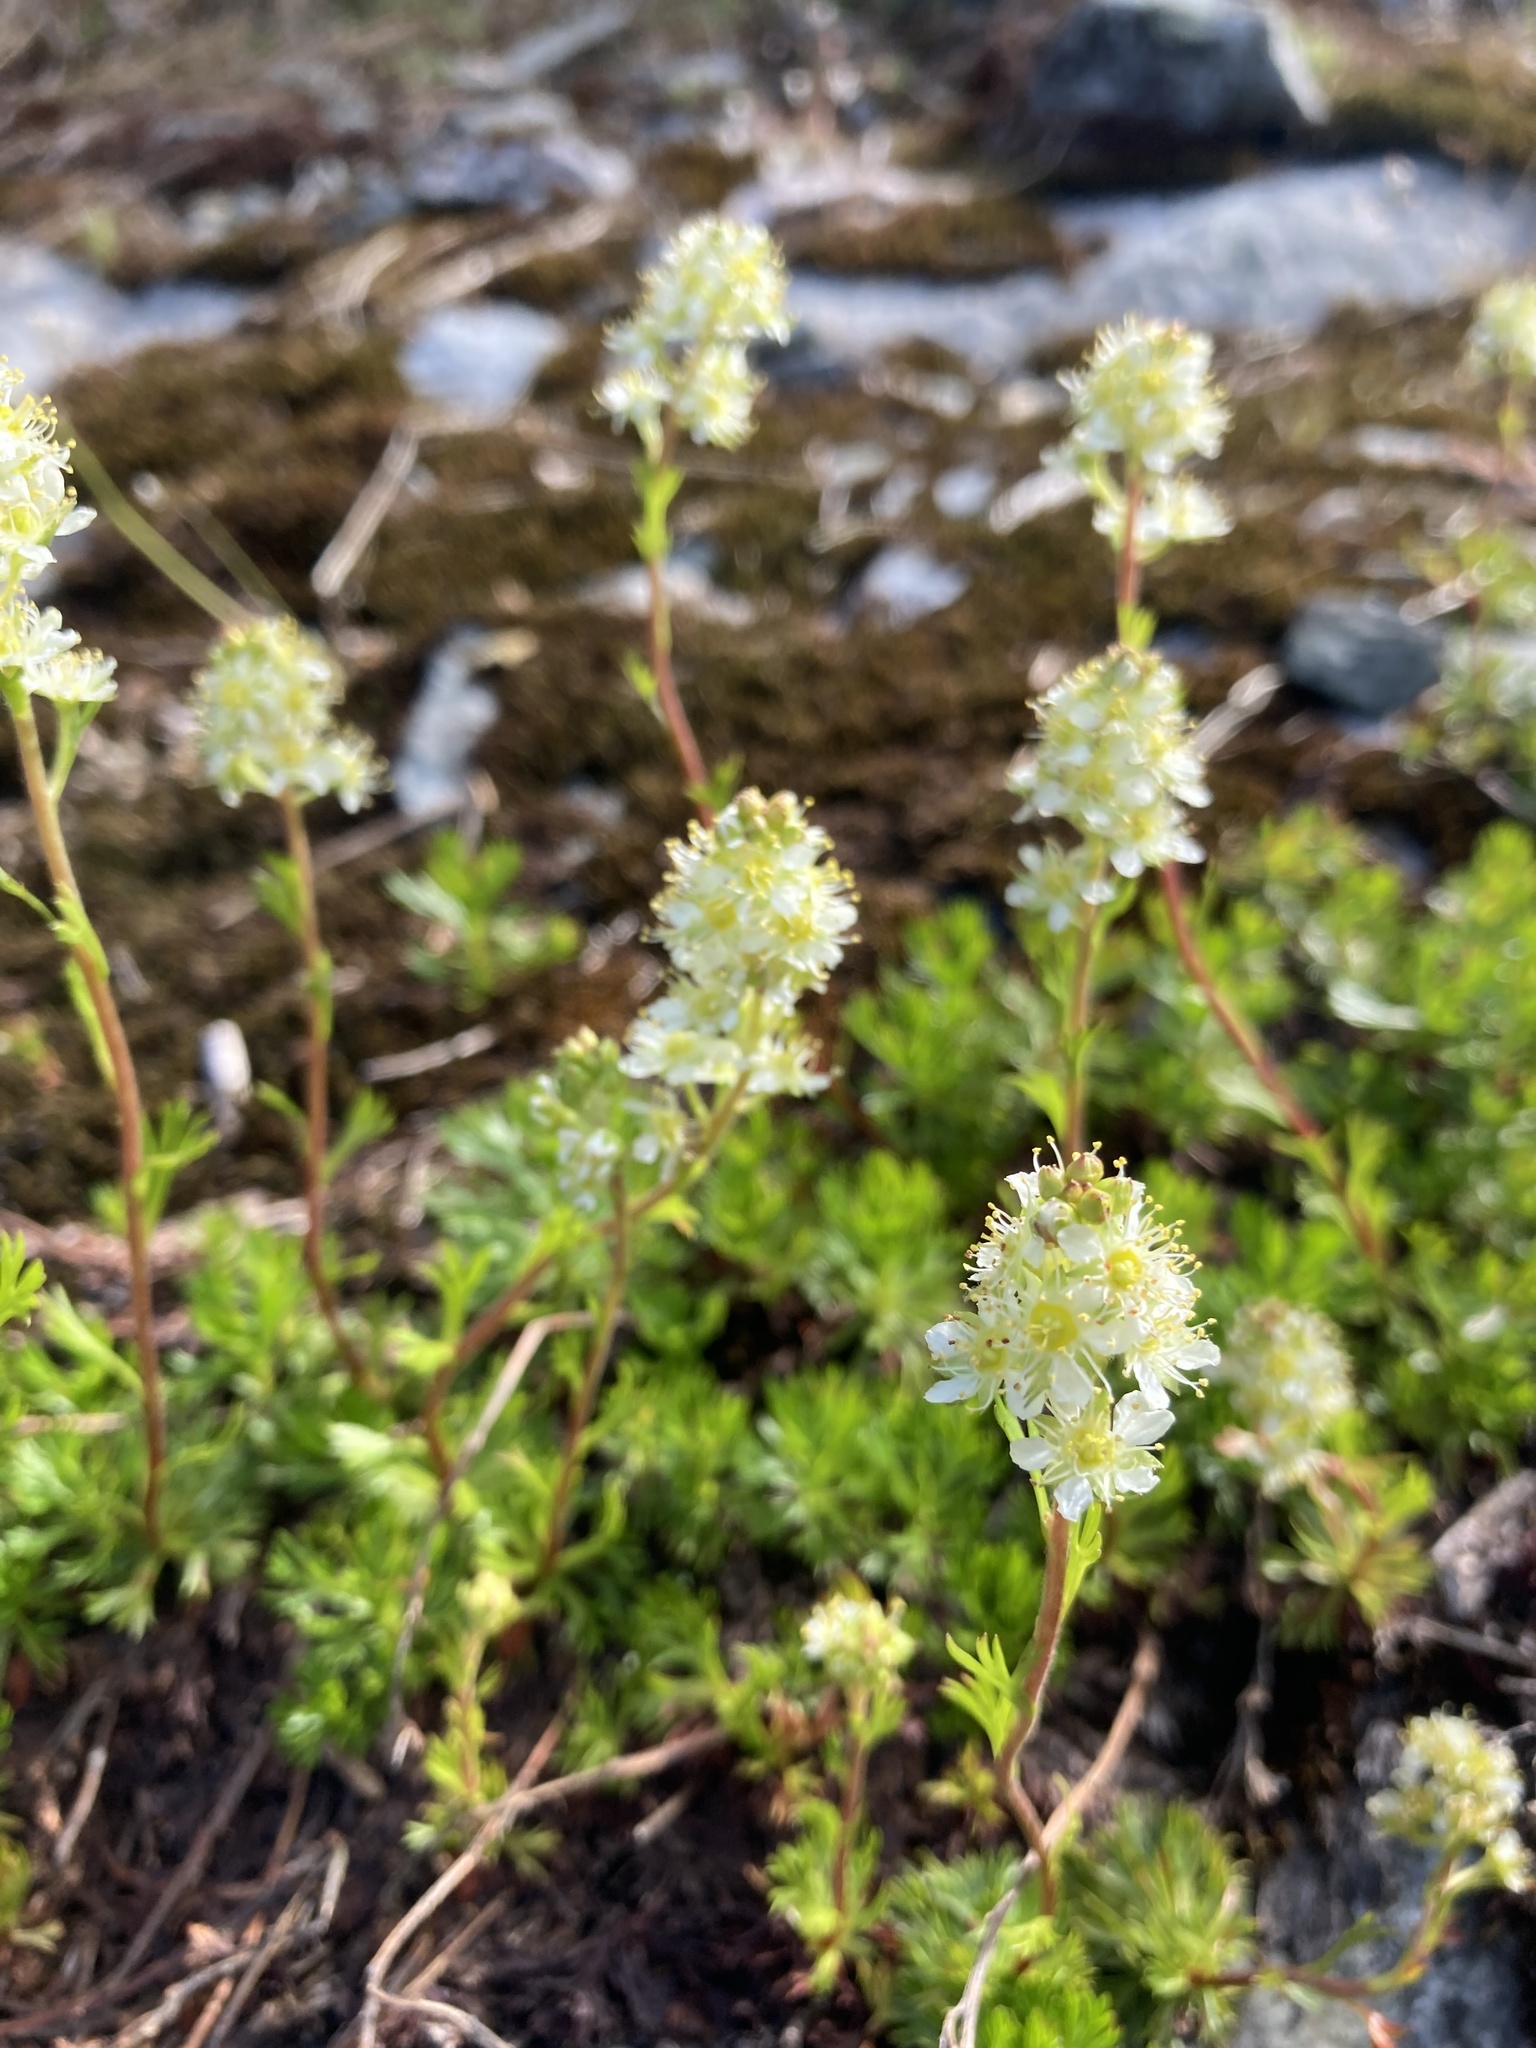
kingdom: Plantae
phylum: Tracheophyta
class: Magnoliopsida
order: Rosales
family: Rosaceae
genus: Luetkea
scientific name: Luetkea pectinata
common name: Partridgefoot
